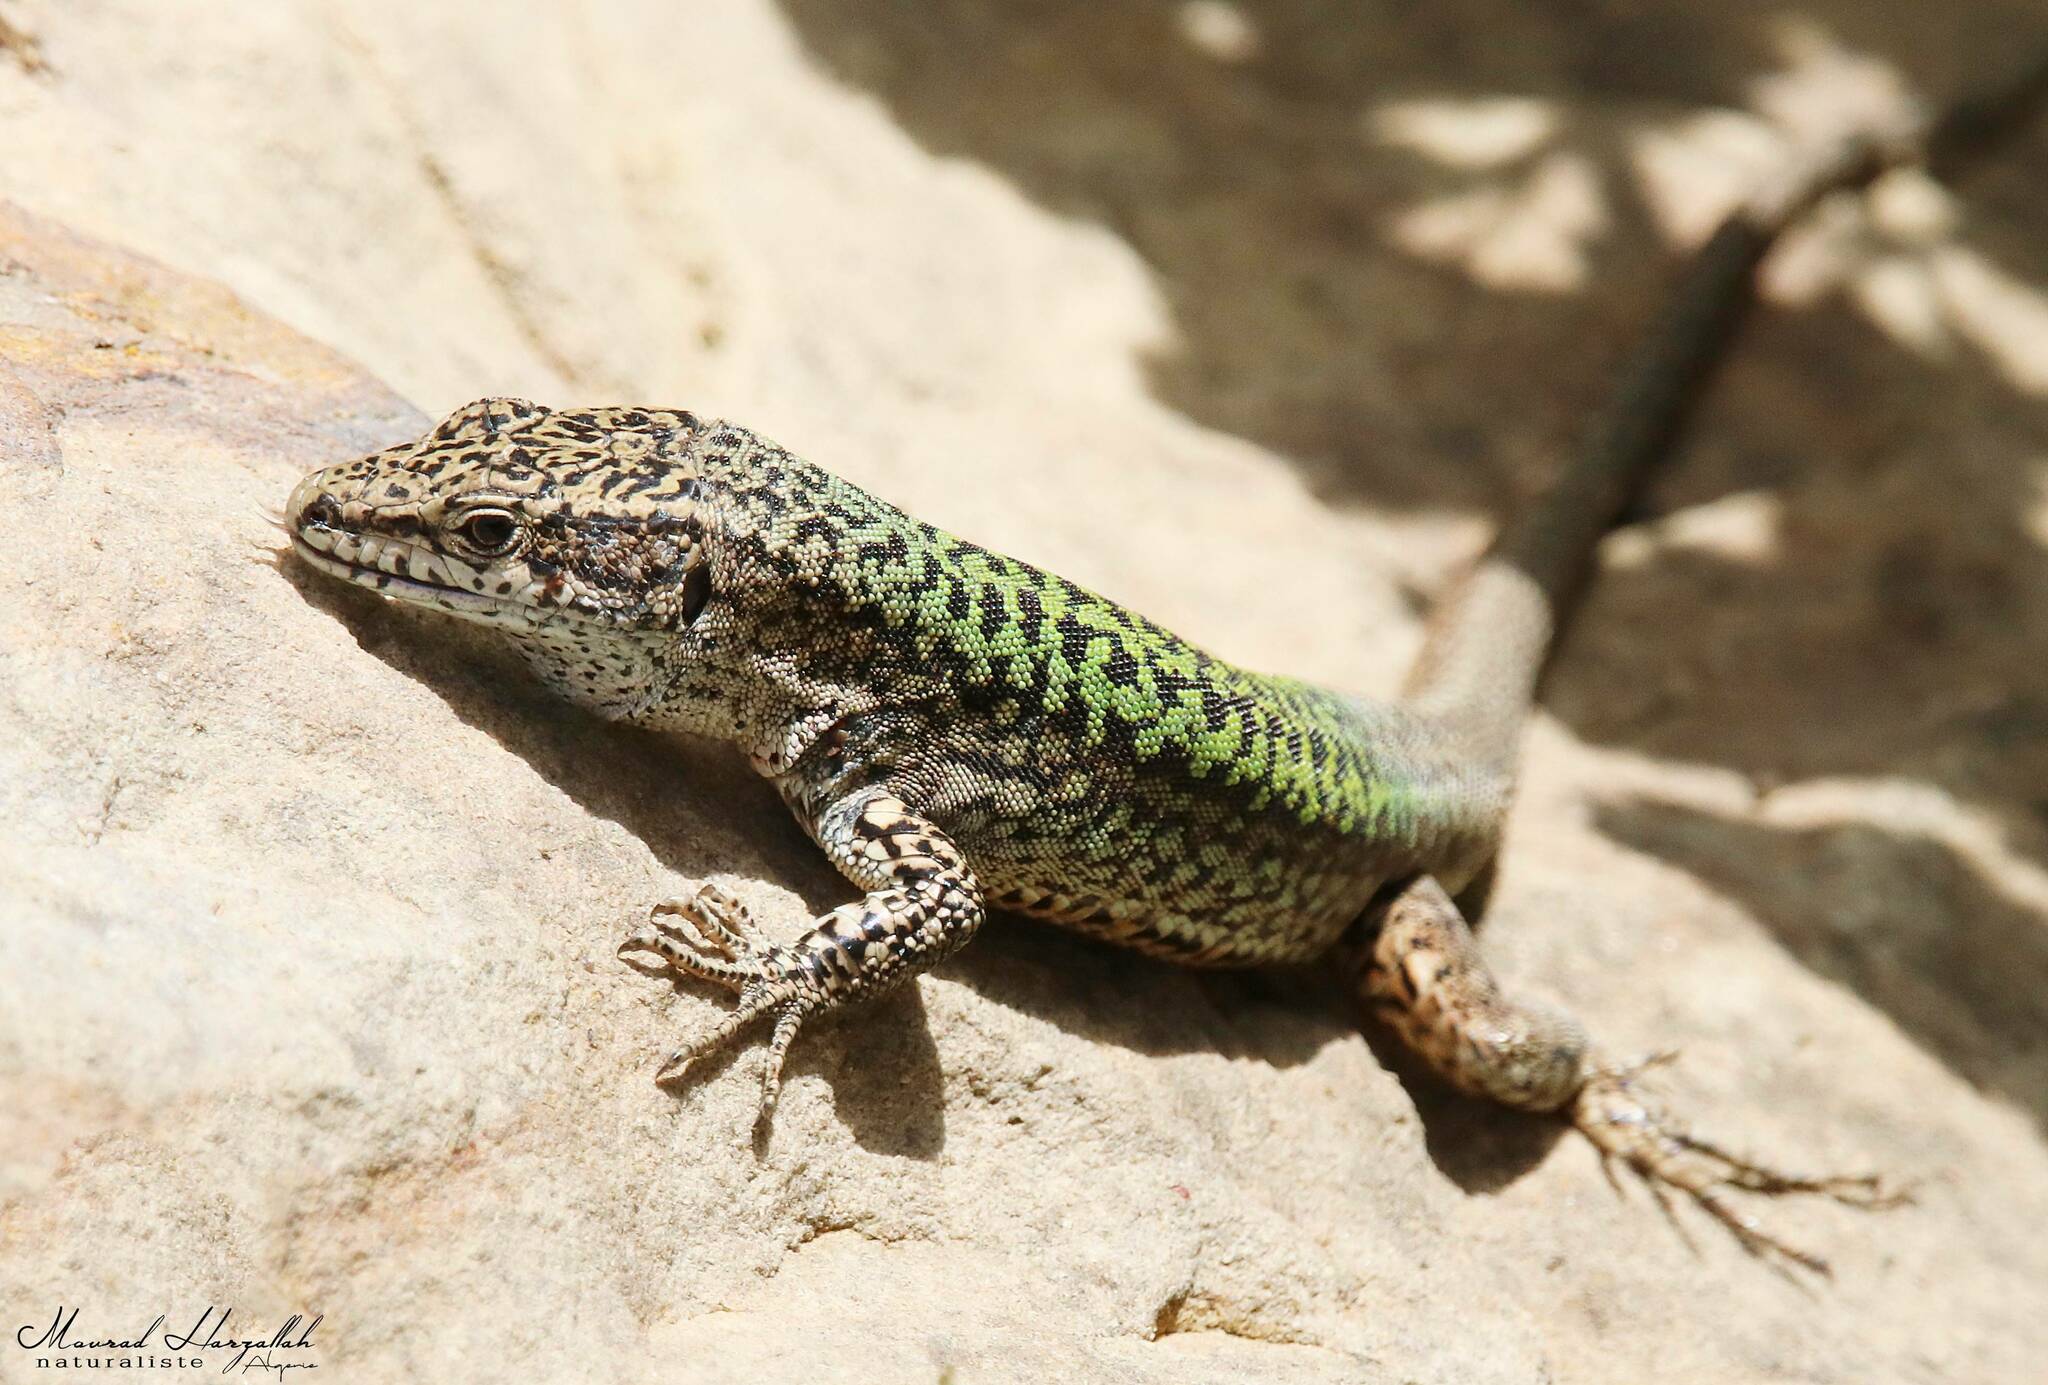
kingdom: Animalia
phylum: Chordata
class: Squamata
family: Lacertidae
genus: Podarcis
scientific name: Podarcis vaucheri
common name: Vaucher's wall lizard
